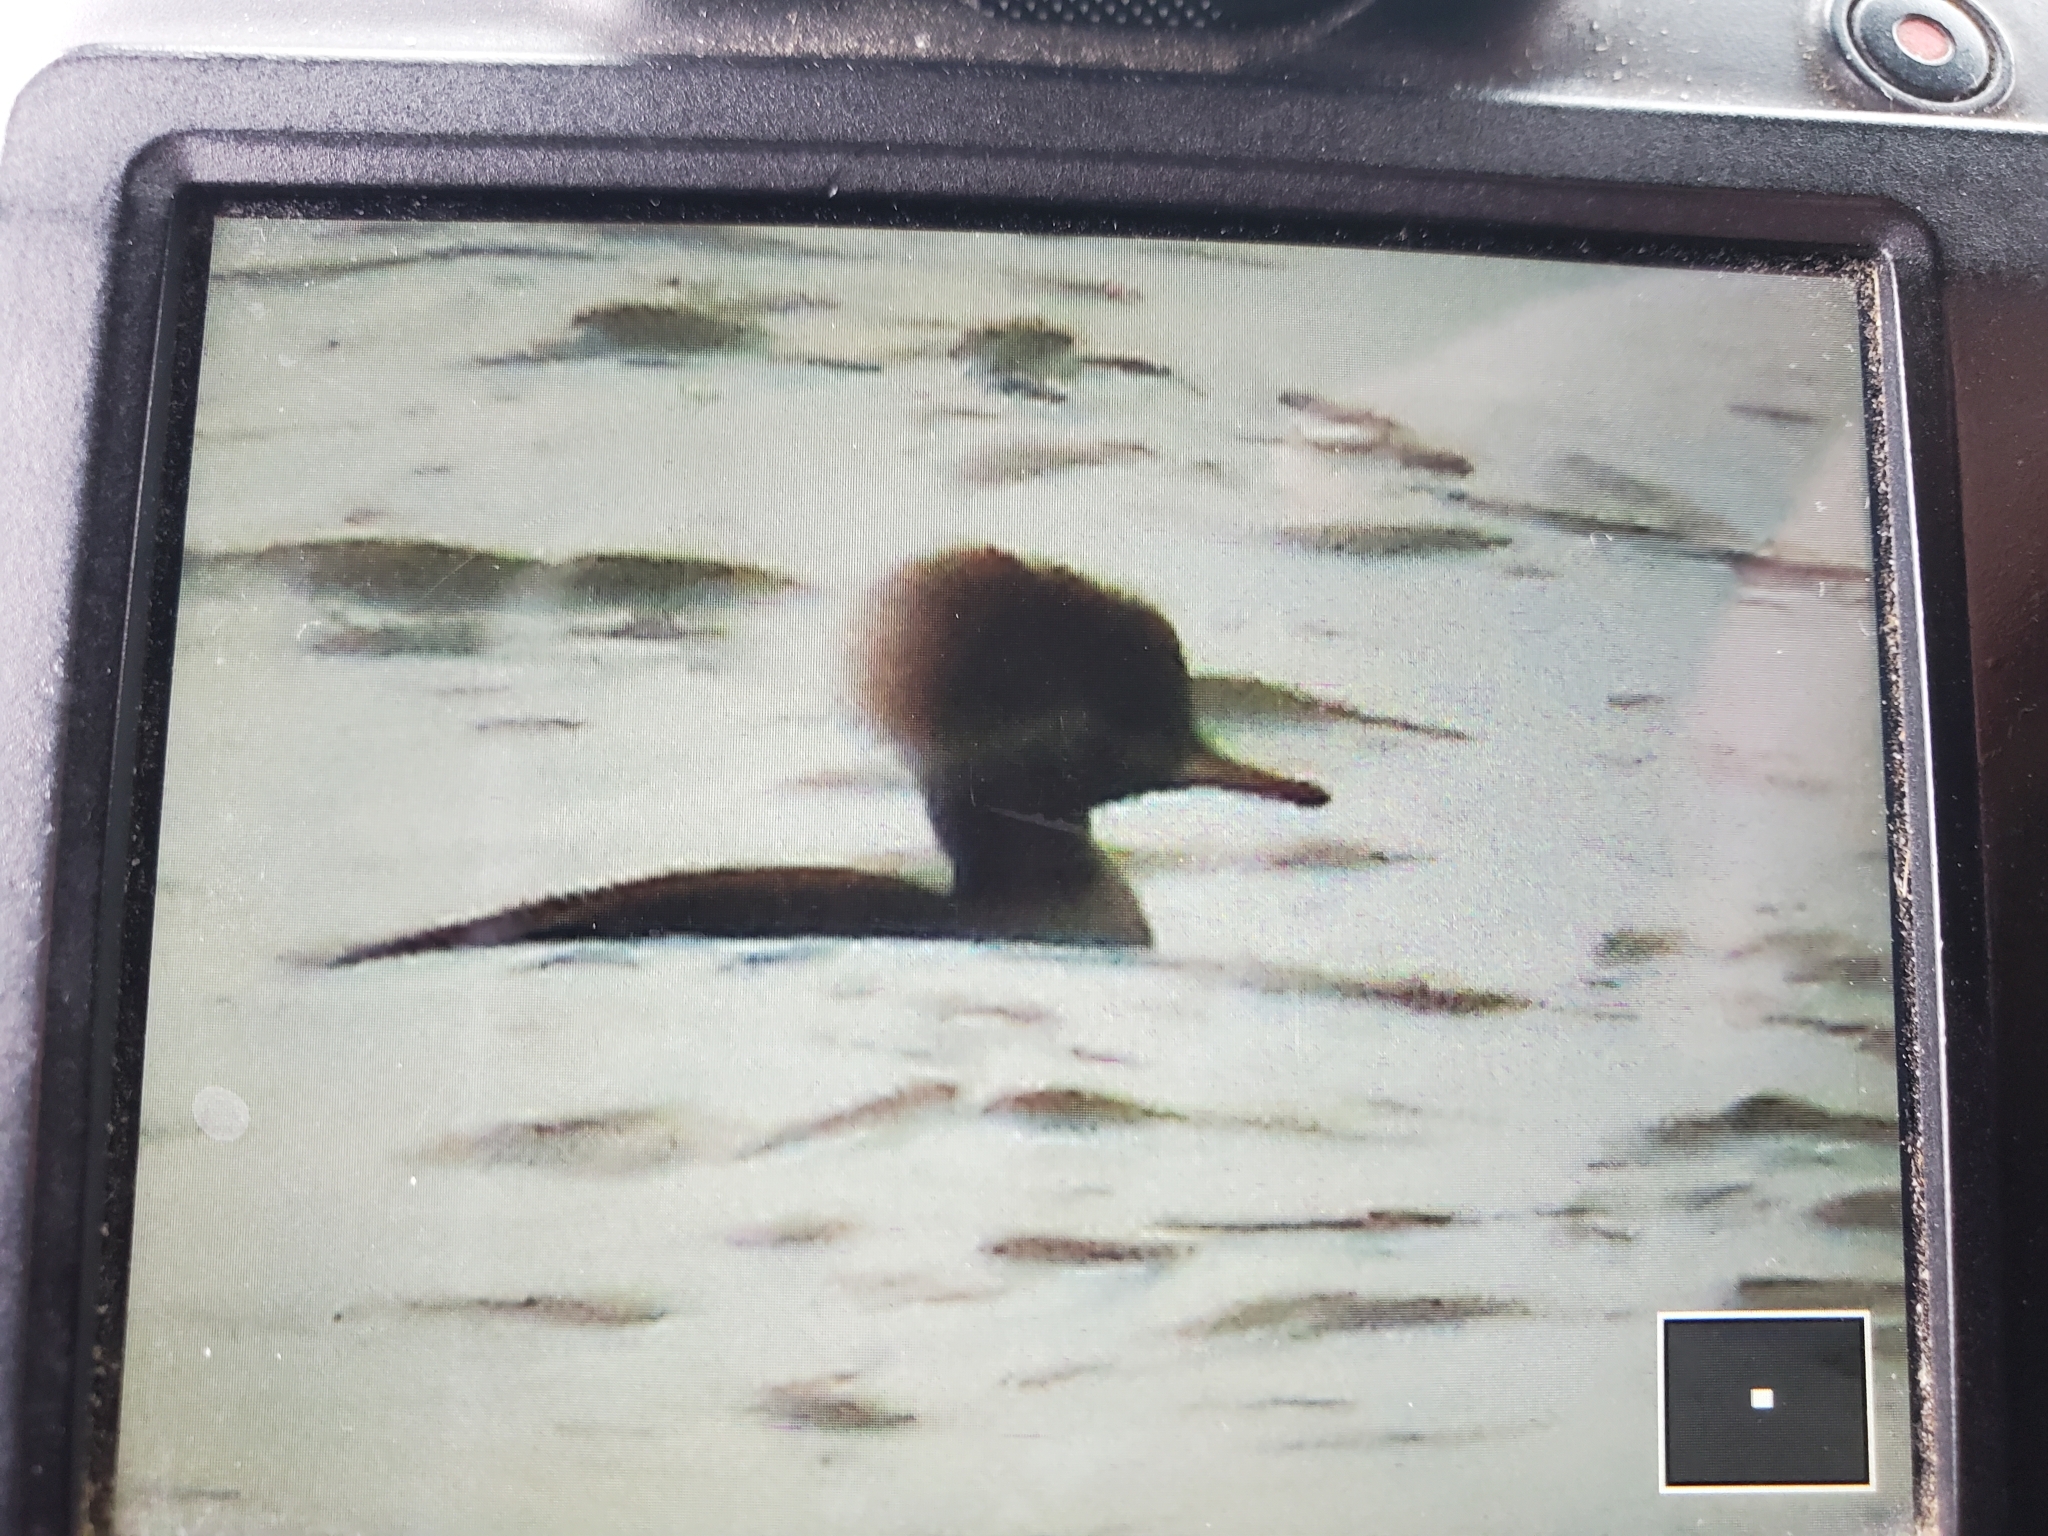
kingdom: Animalia
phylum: Chordata
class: Aves
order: Anseriformes
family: Anatidae
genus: Lophodytes
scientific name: Lophodytes cucullatus
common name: Hooded merganser
